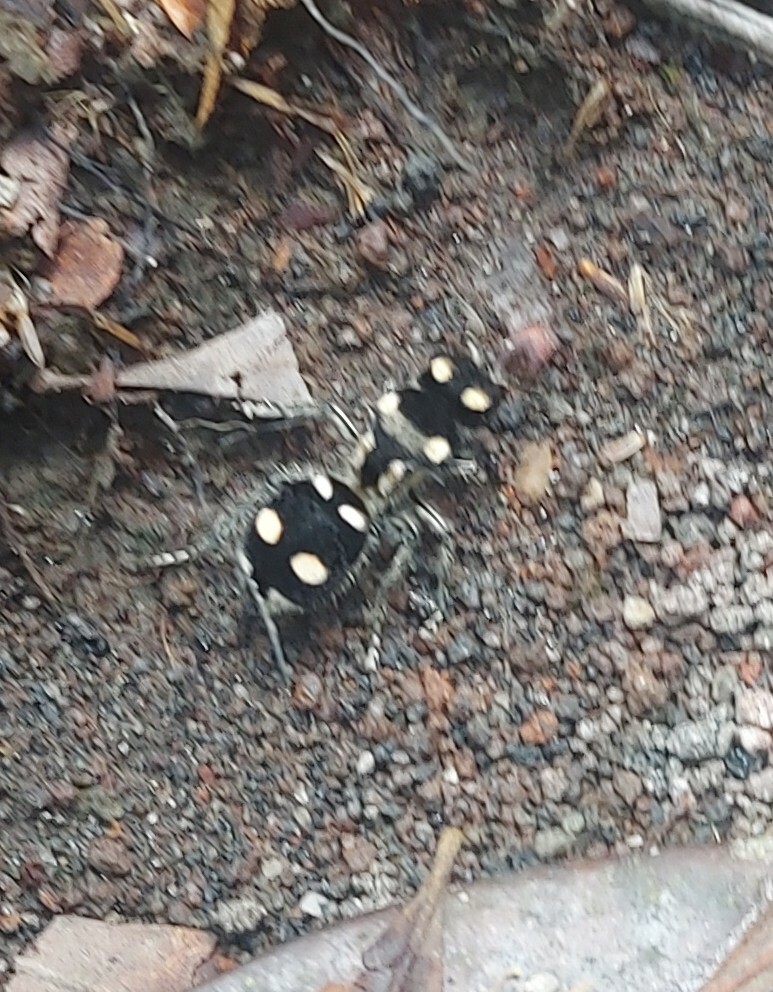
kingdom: Animalia
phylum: Arthropoda
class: Insecta
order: Hymenoptera
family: Mutillidae
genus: Hoplomutilla
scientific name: Hoplomutilla
